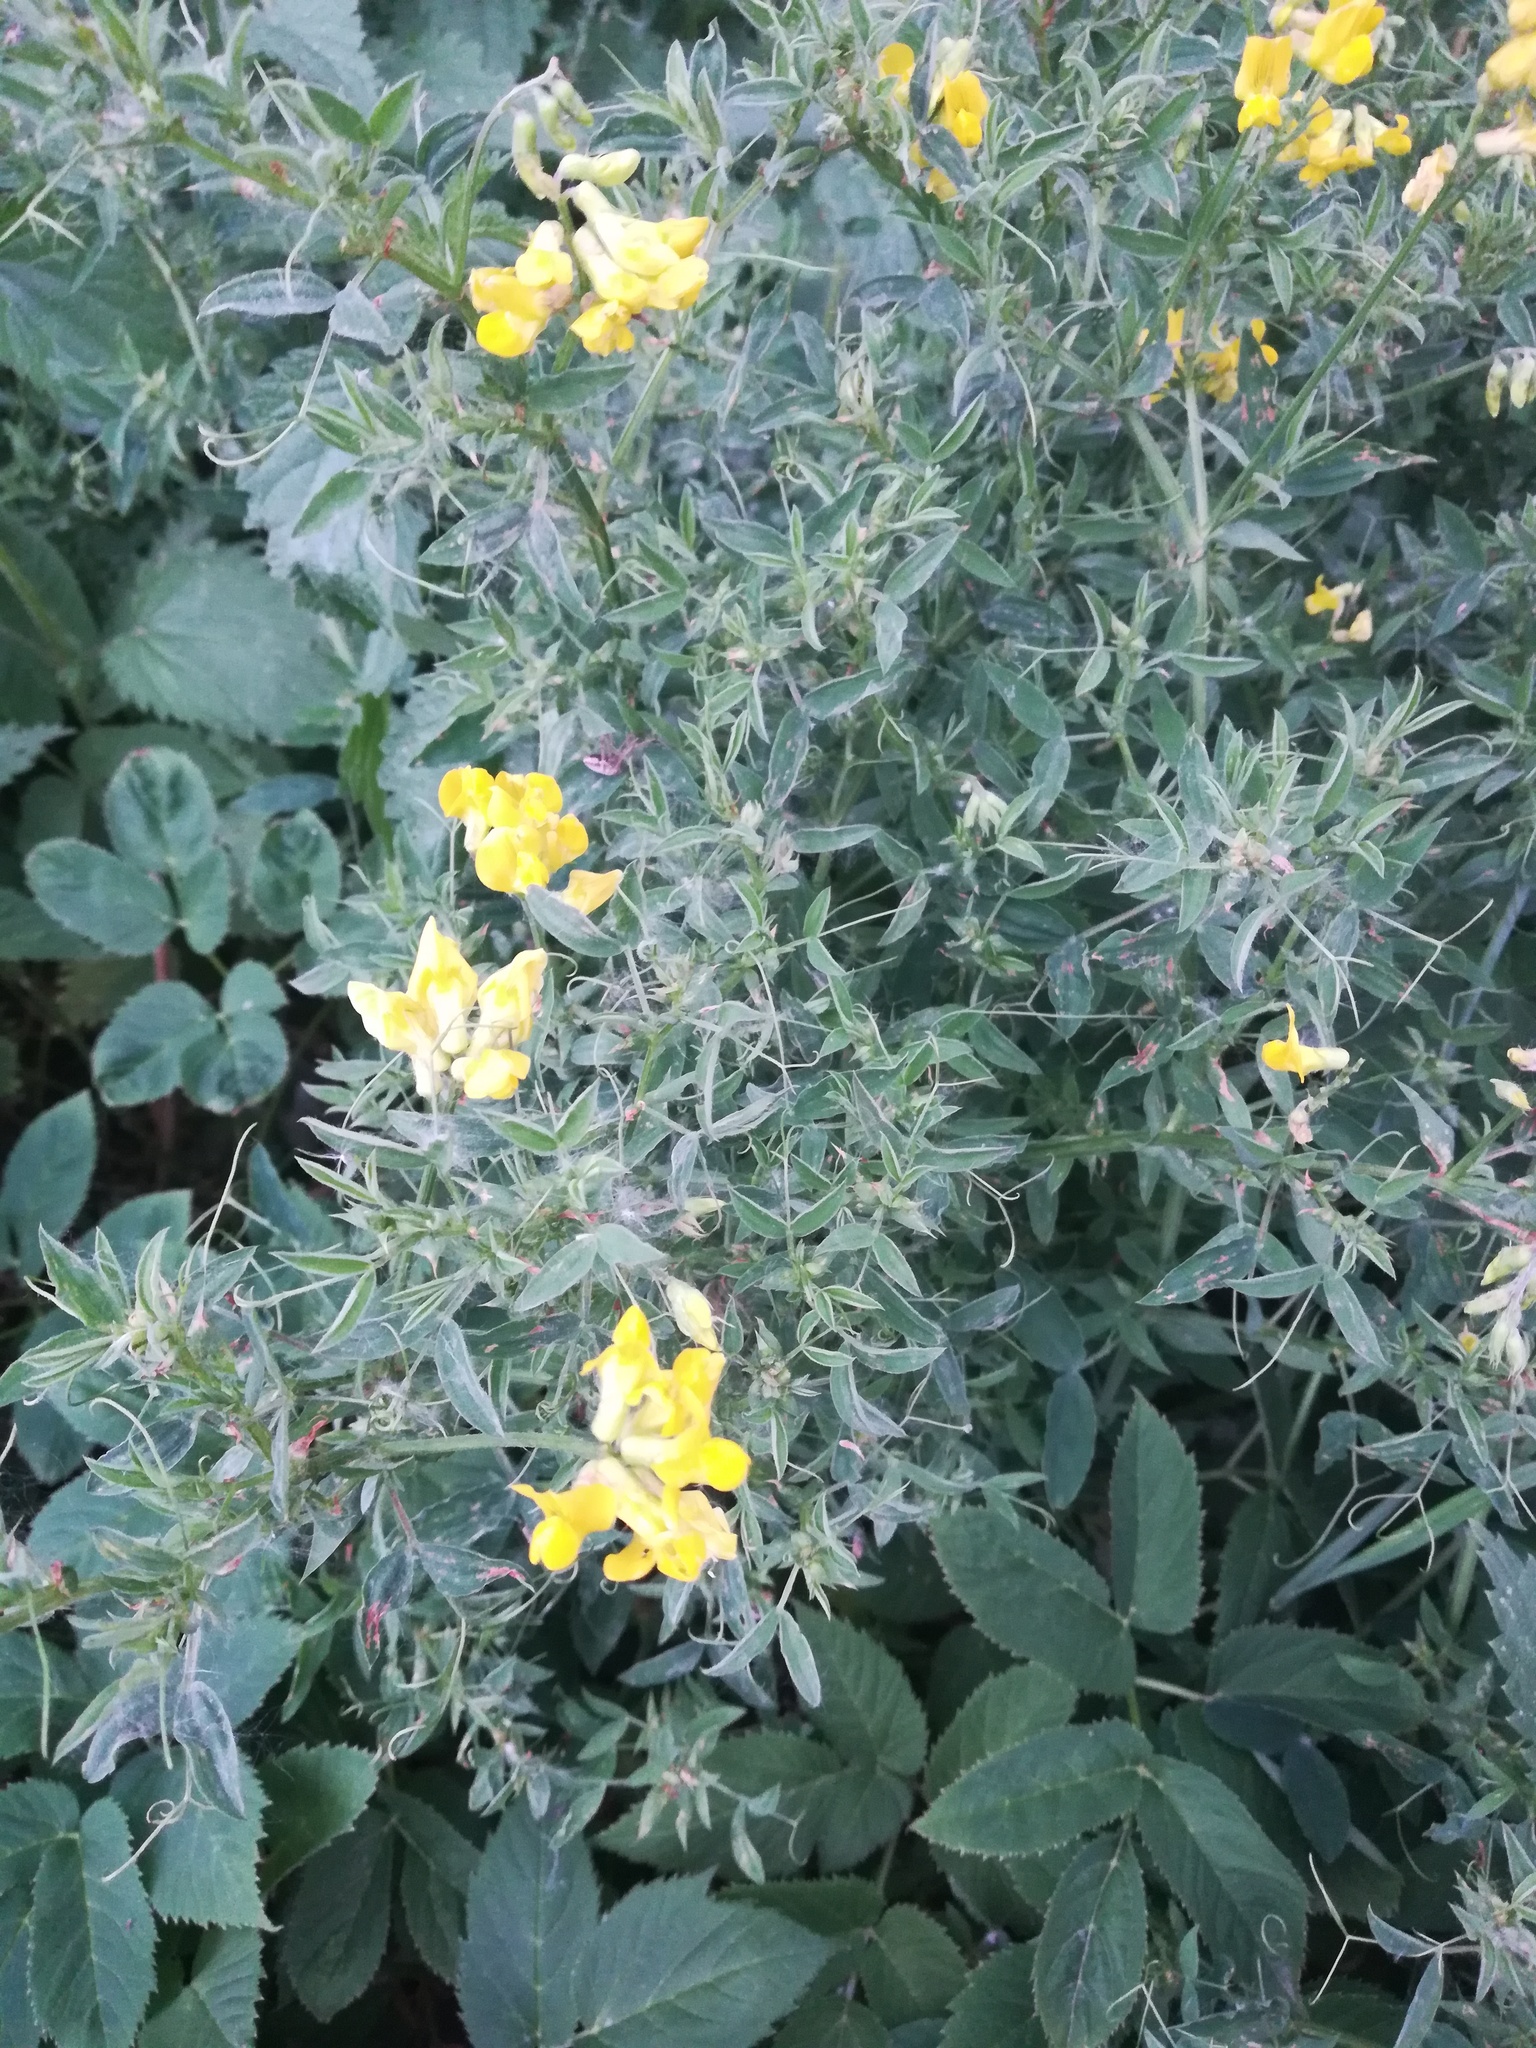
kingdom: Plantae
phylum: Tracheophyta
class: Magnoliopsida
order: Fabales
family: Fabaceae
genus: Lathyrus
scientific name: Lathyrus pratensis
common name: Meadow vetchling
